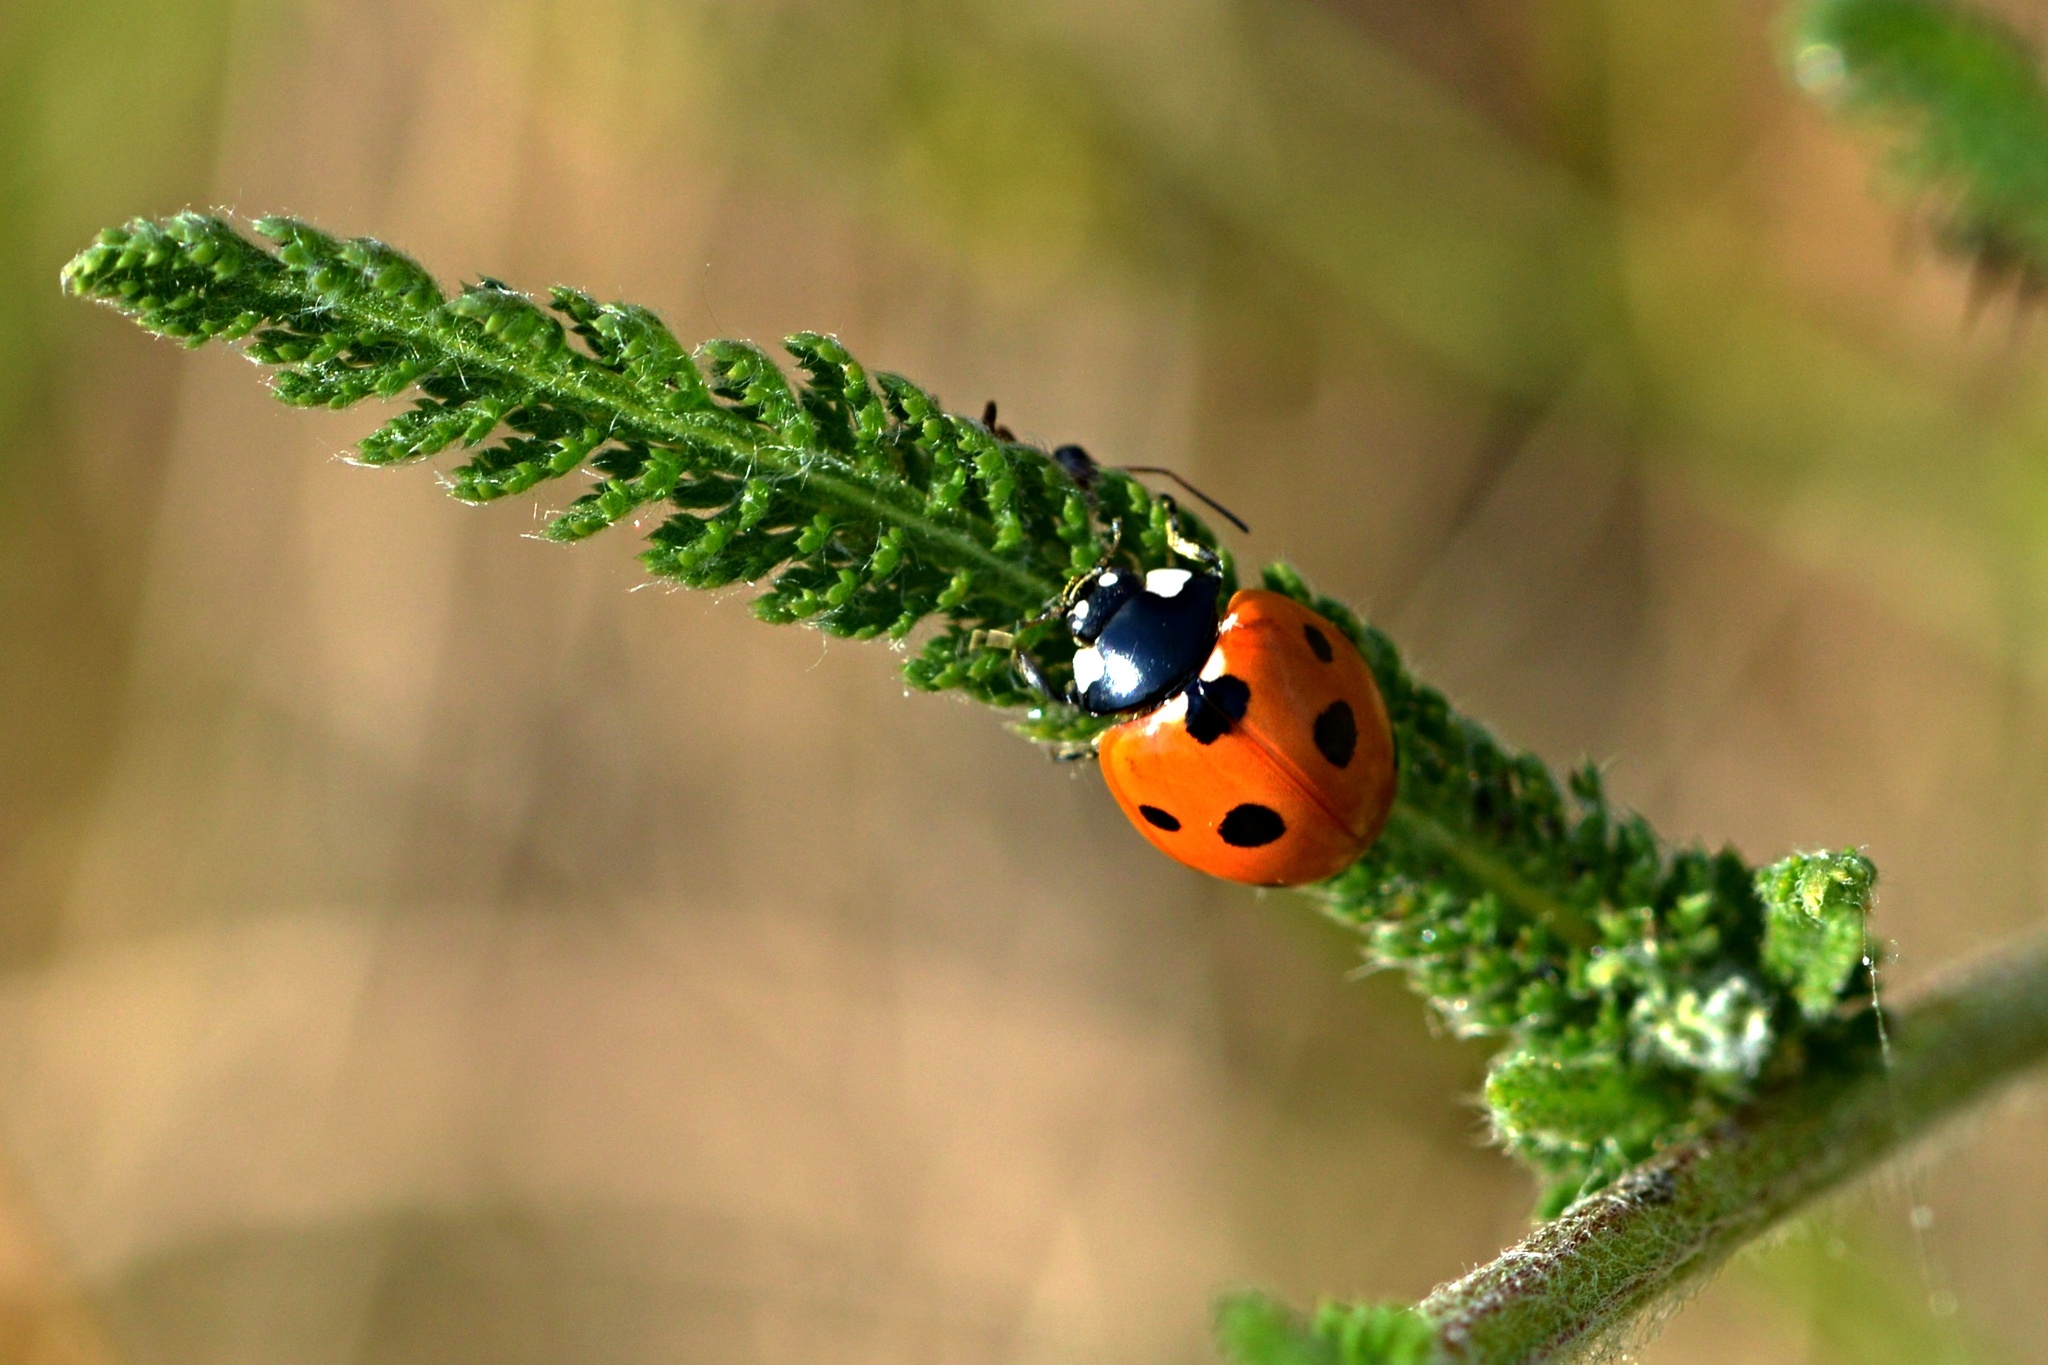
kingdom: Animalia
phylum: Arthropoda
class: Insecta
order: Coleoptera
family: Coccinellidae
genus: Coccinella
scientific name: Coccinella septempunctata
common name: Sevenspotted lady beetle
